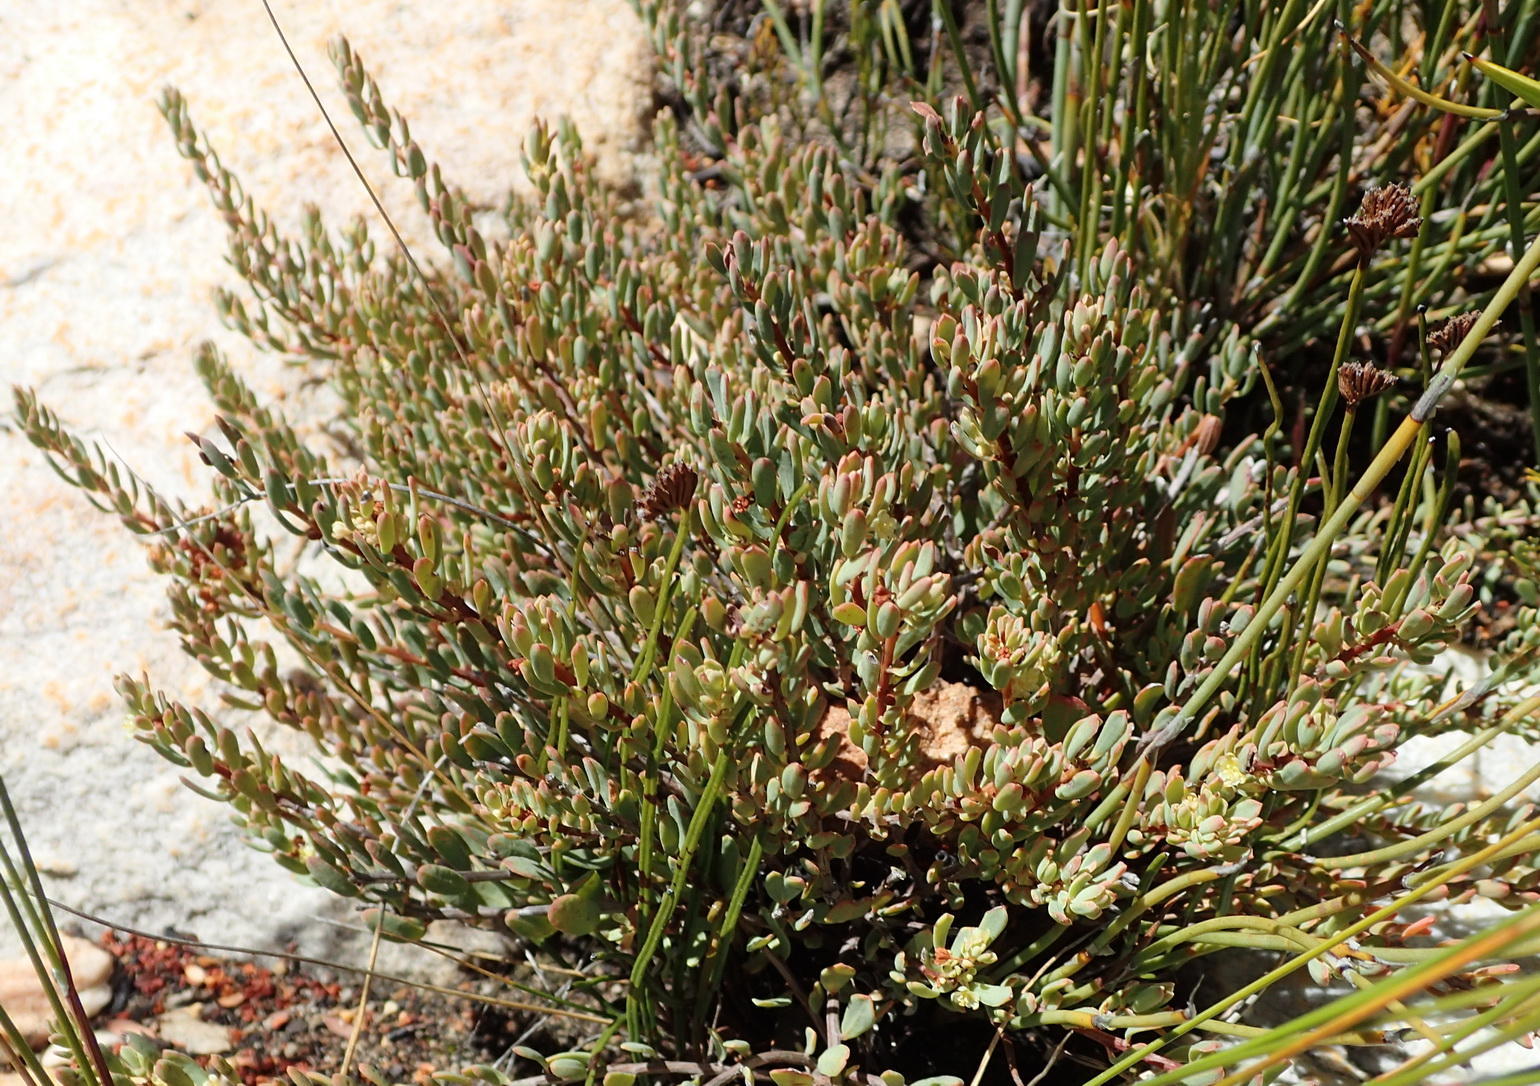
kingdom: Plantae
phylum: Tracheophyta
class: Magnoliopsida
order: Malpighiales
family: Peraceae
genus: Clutia
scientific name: Clutia laxa
